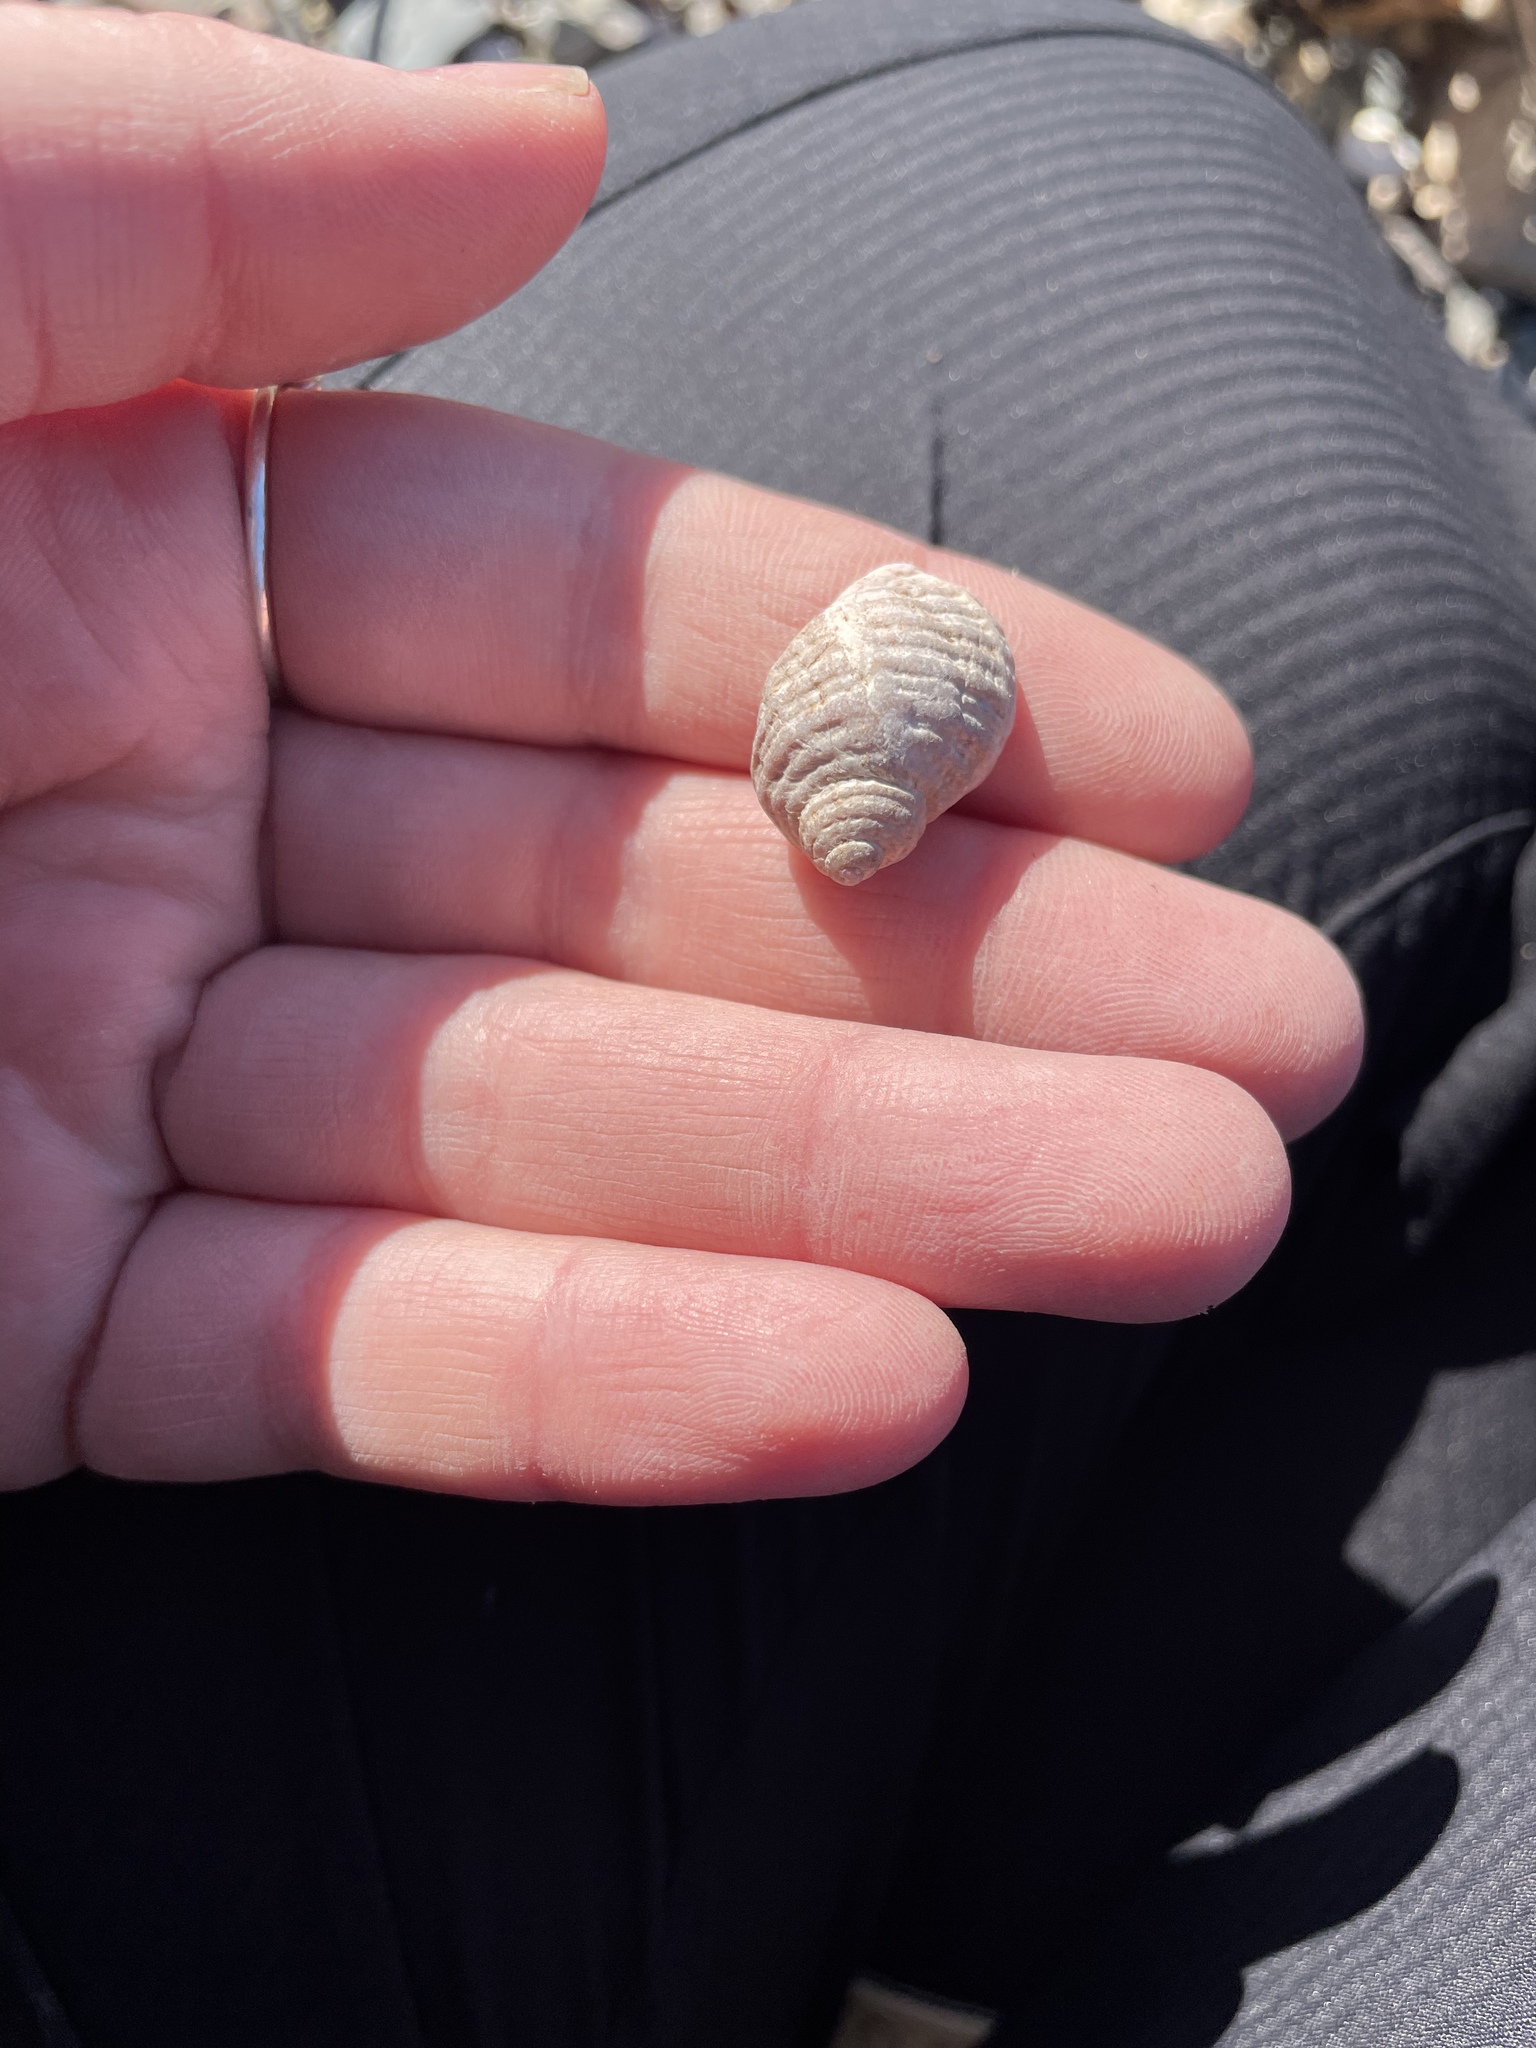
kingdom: Animalia
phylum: Mollusca
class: Gastropoda
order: Neogastropoda
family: Muricidae
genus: Nucella
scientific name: Nucella lapillus
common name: Dog whelk
